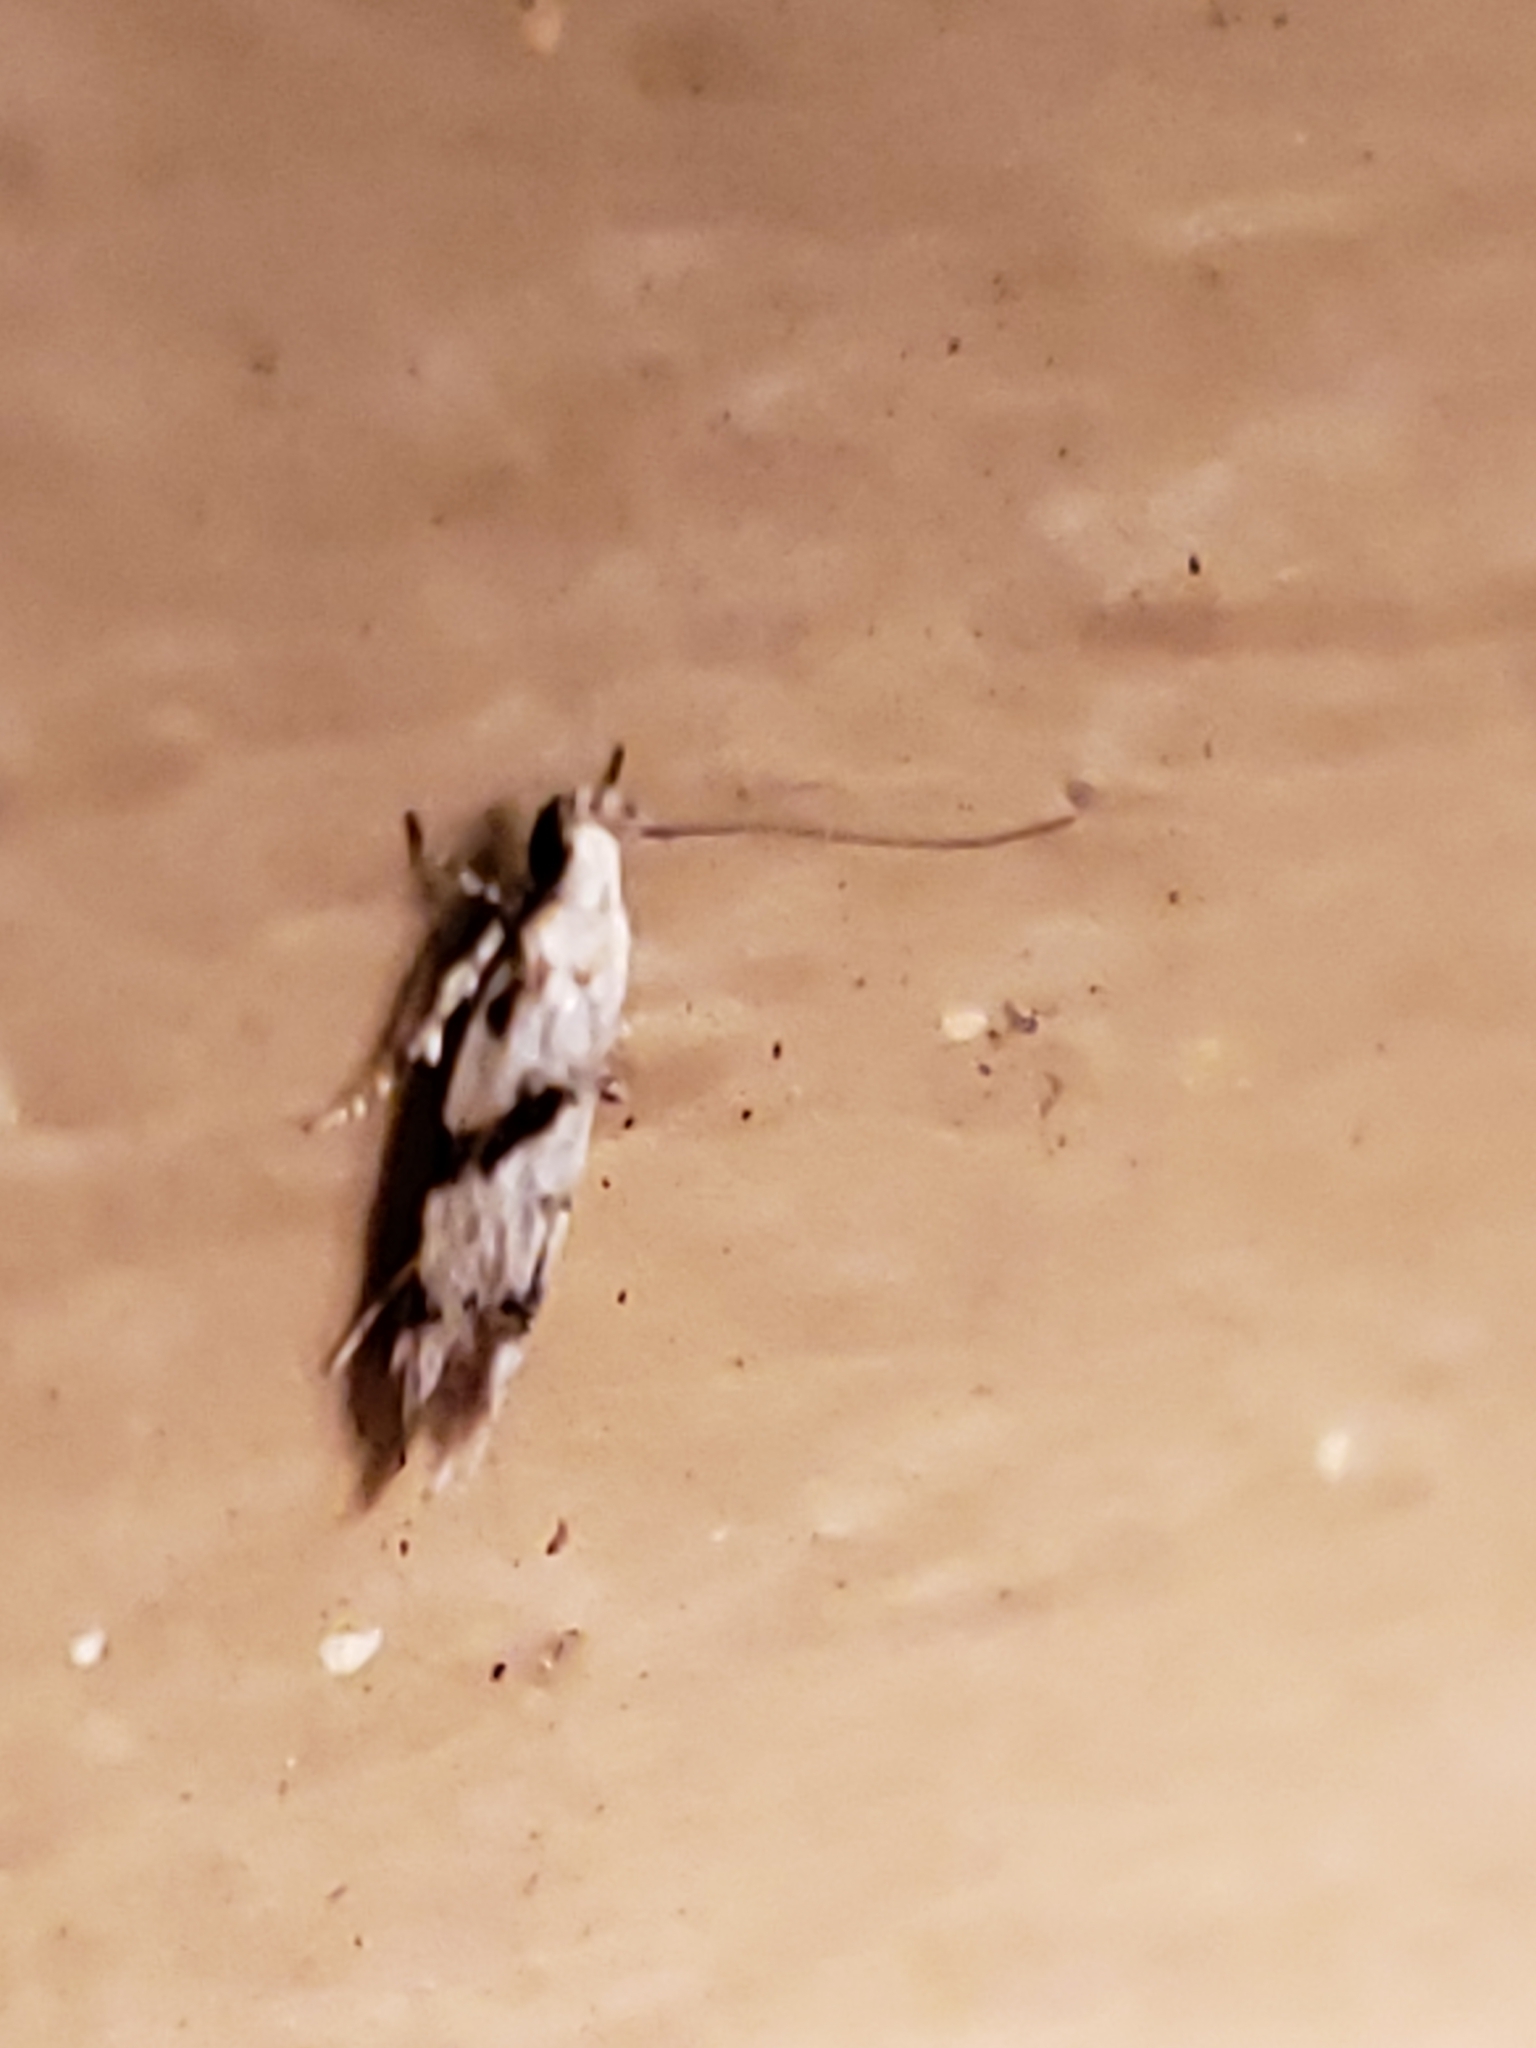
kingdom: Animalia
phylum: Arthropoda
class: Insecta
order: Lepidoptera
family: Gelechiidae
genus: Arogalea
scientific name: Arogalea cristifasciella
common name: White stripe-backed moth
